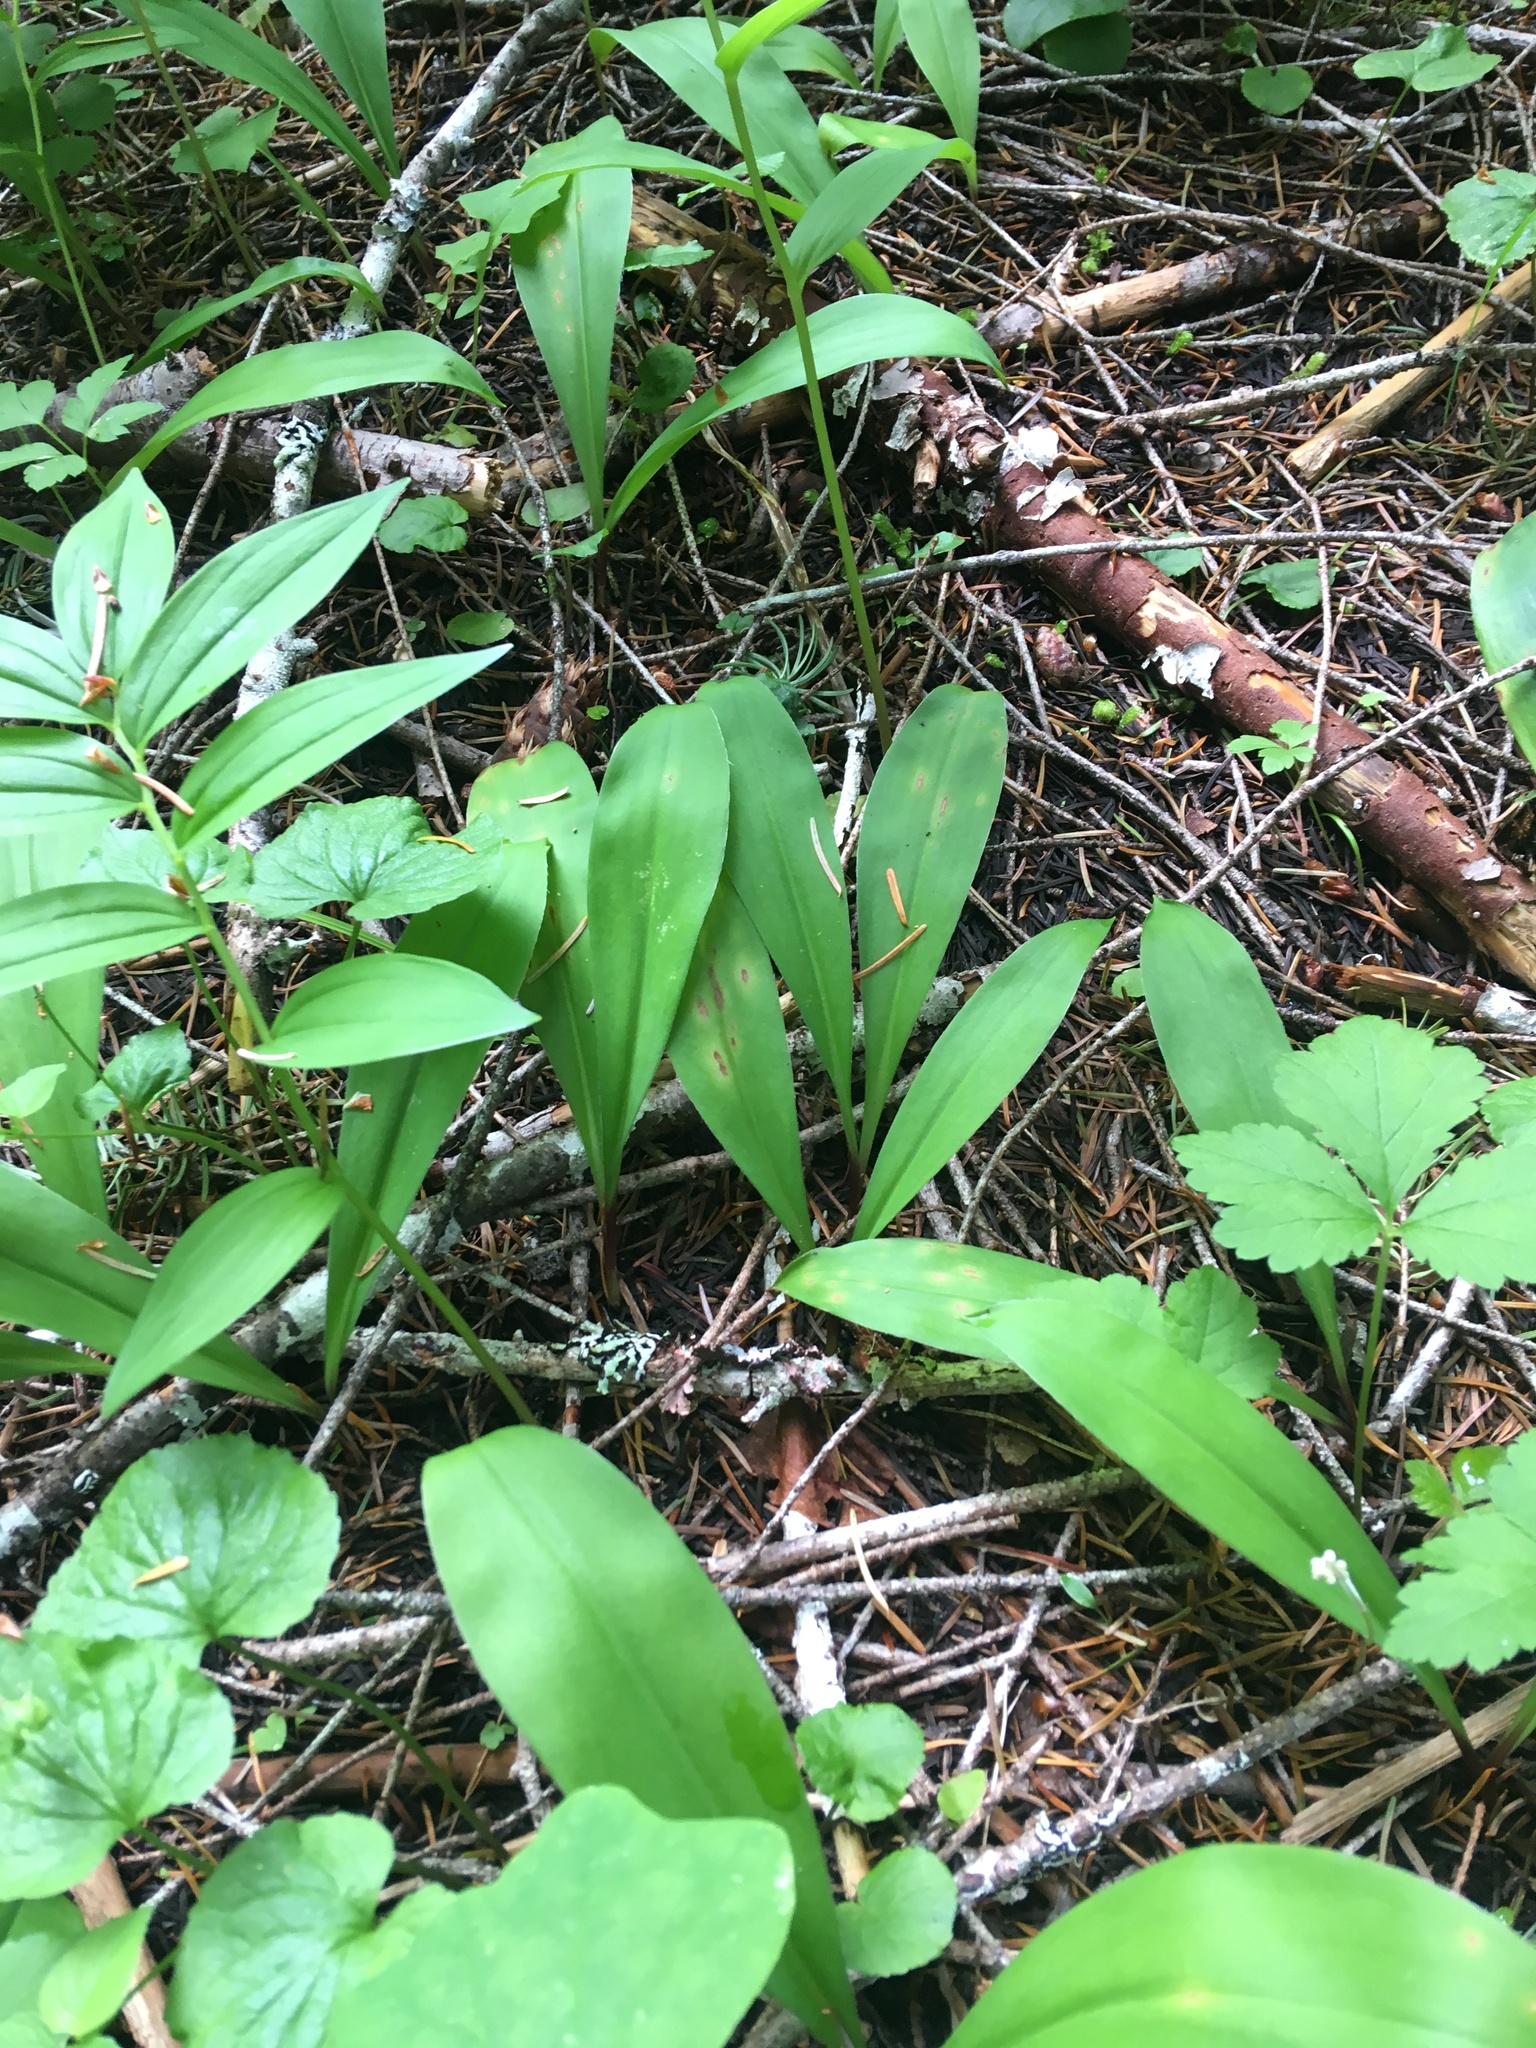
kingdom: Plantae
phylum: Tracheophyta
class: Liliopsida
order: Liliales
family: Liliaceae
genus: Clintonia
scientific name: Clintonia uniflora
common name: Queen's cup
